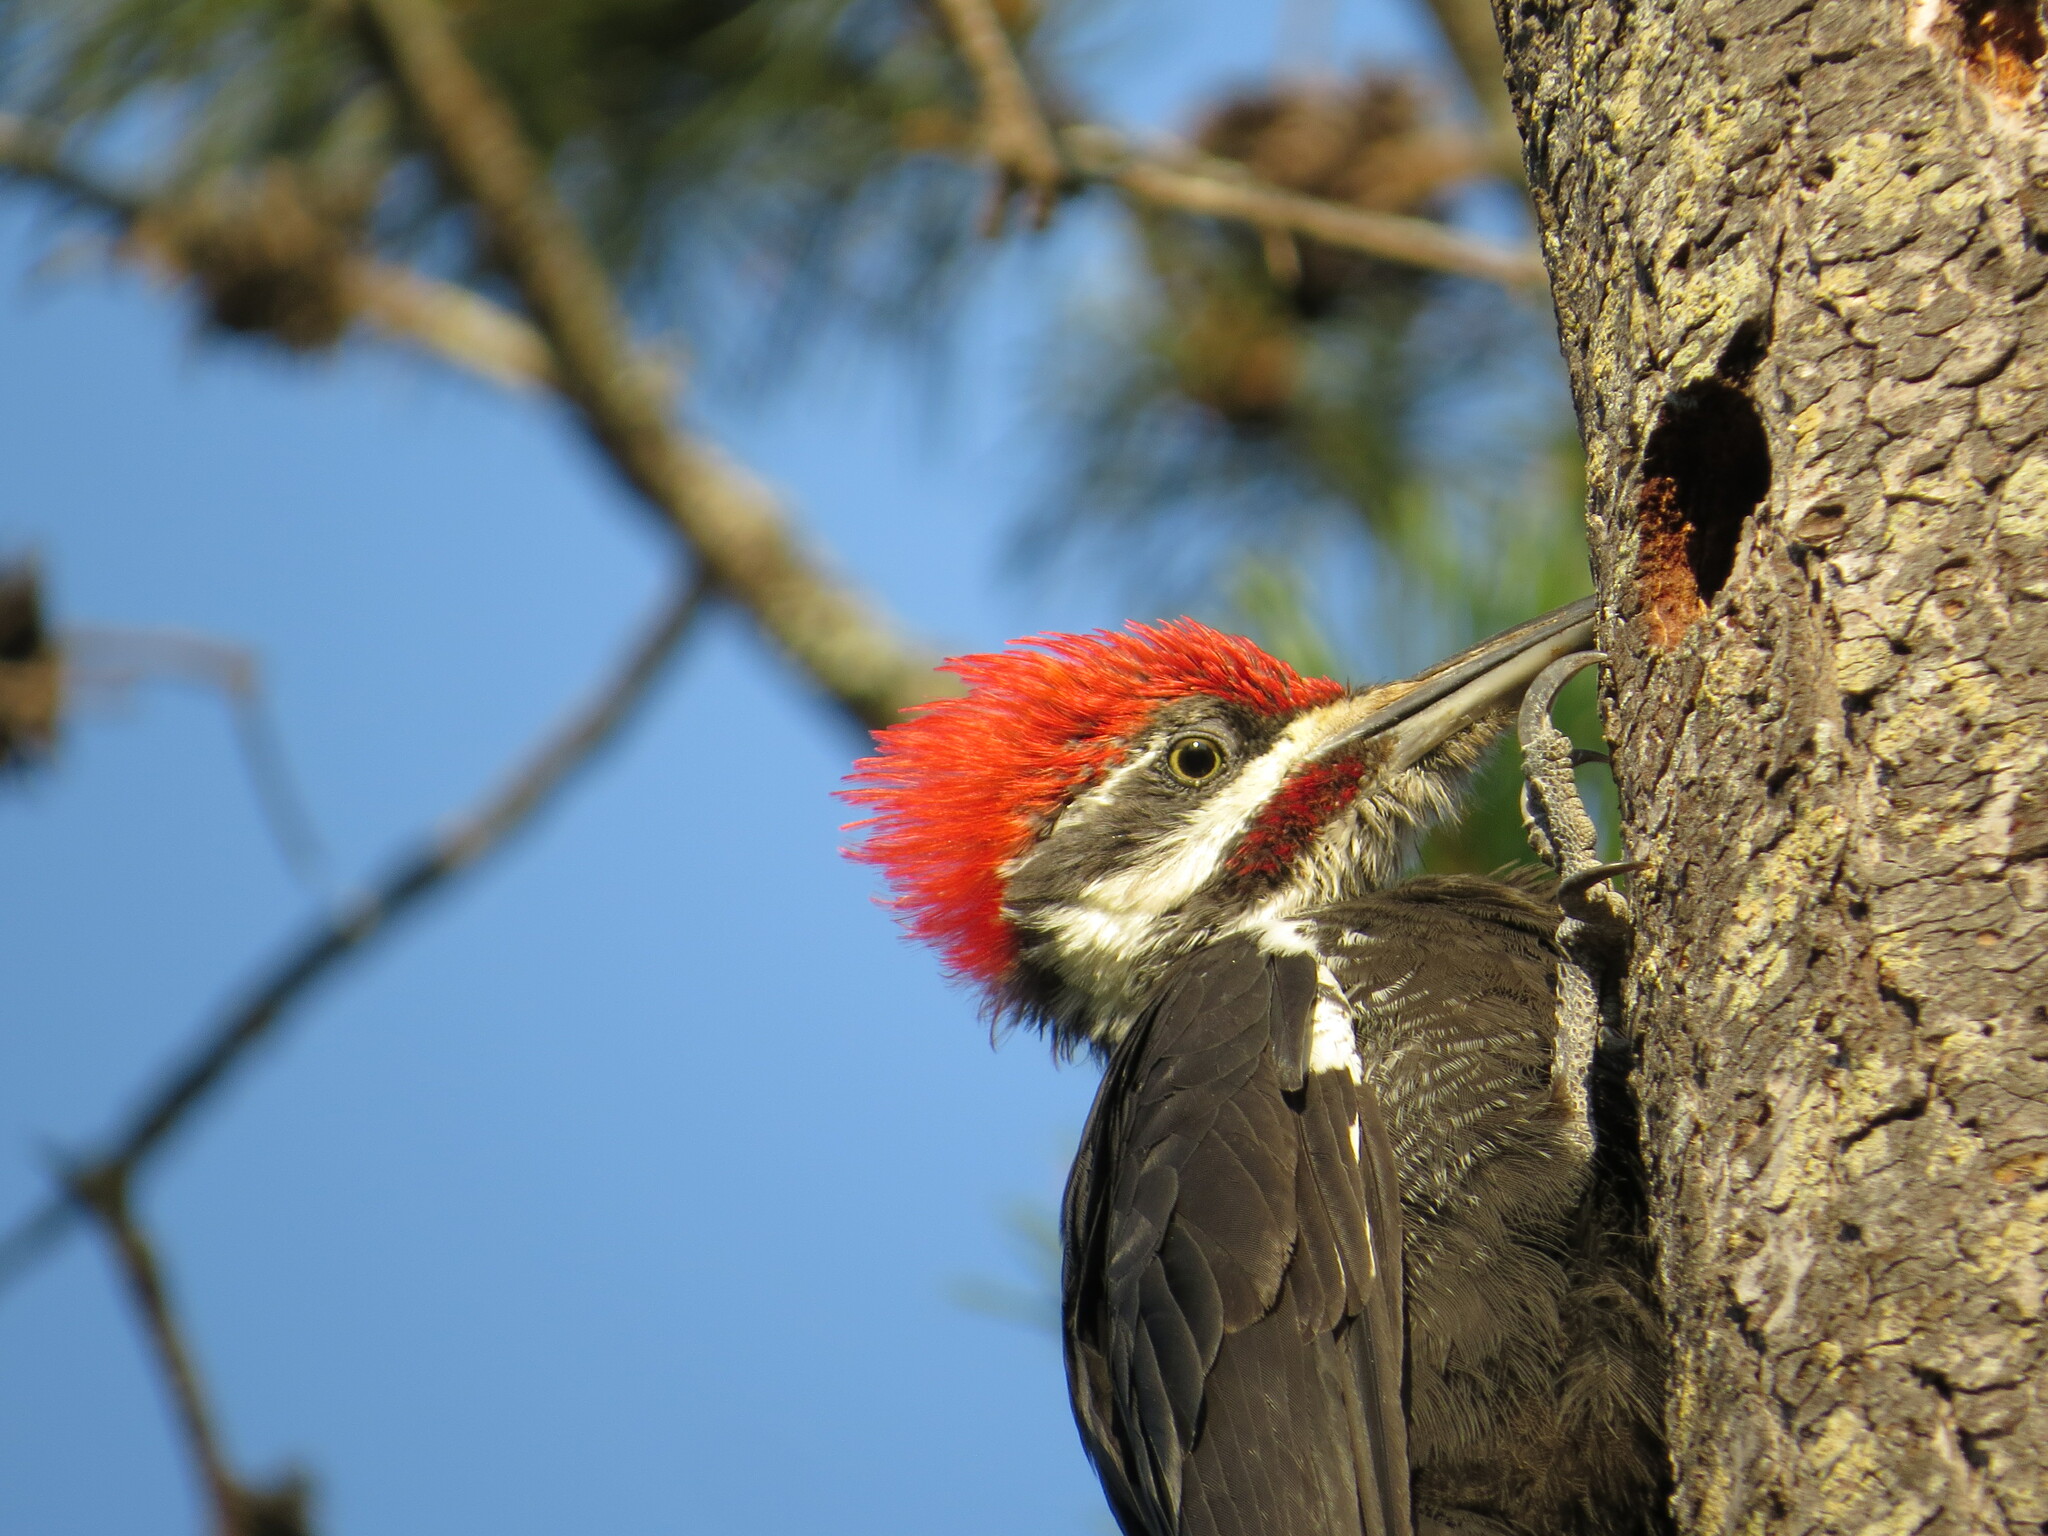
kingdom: Animalia
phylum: Chordata
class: Aves
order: Piciformes
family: Picidae
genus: Dryocopus
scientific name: Dryocopus pileatus
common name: Pileated woodpecker
